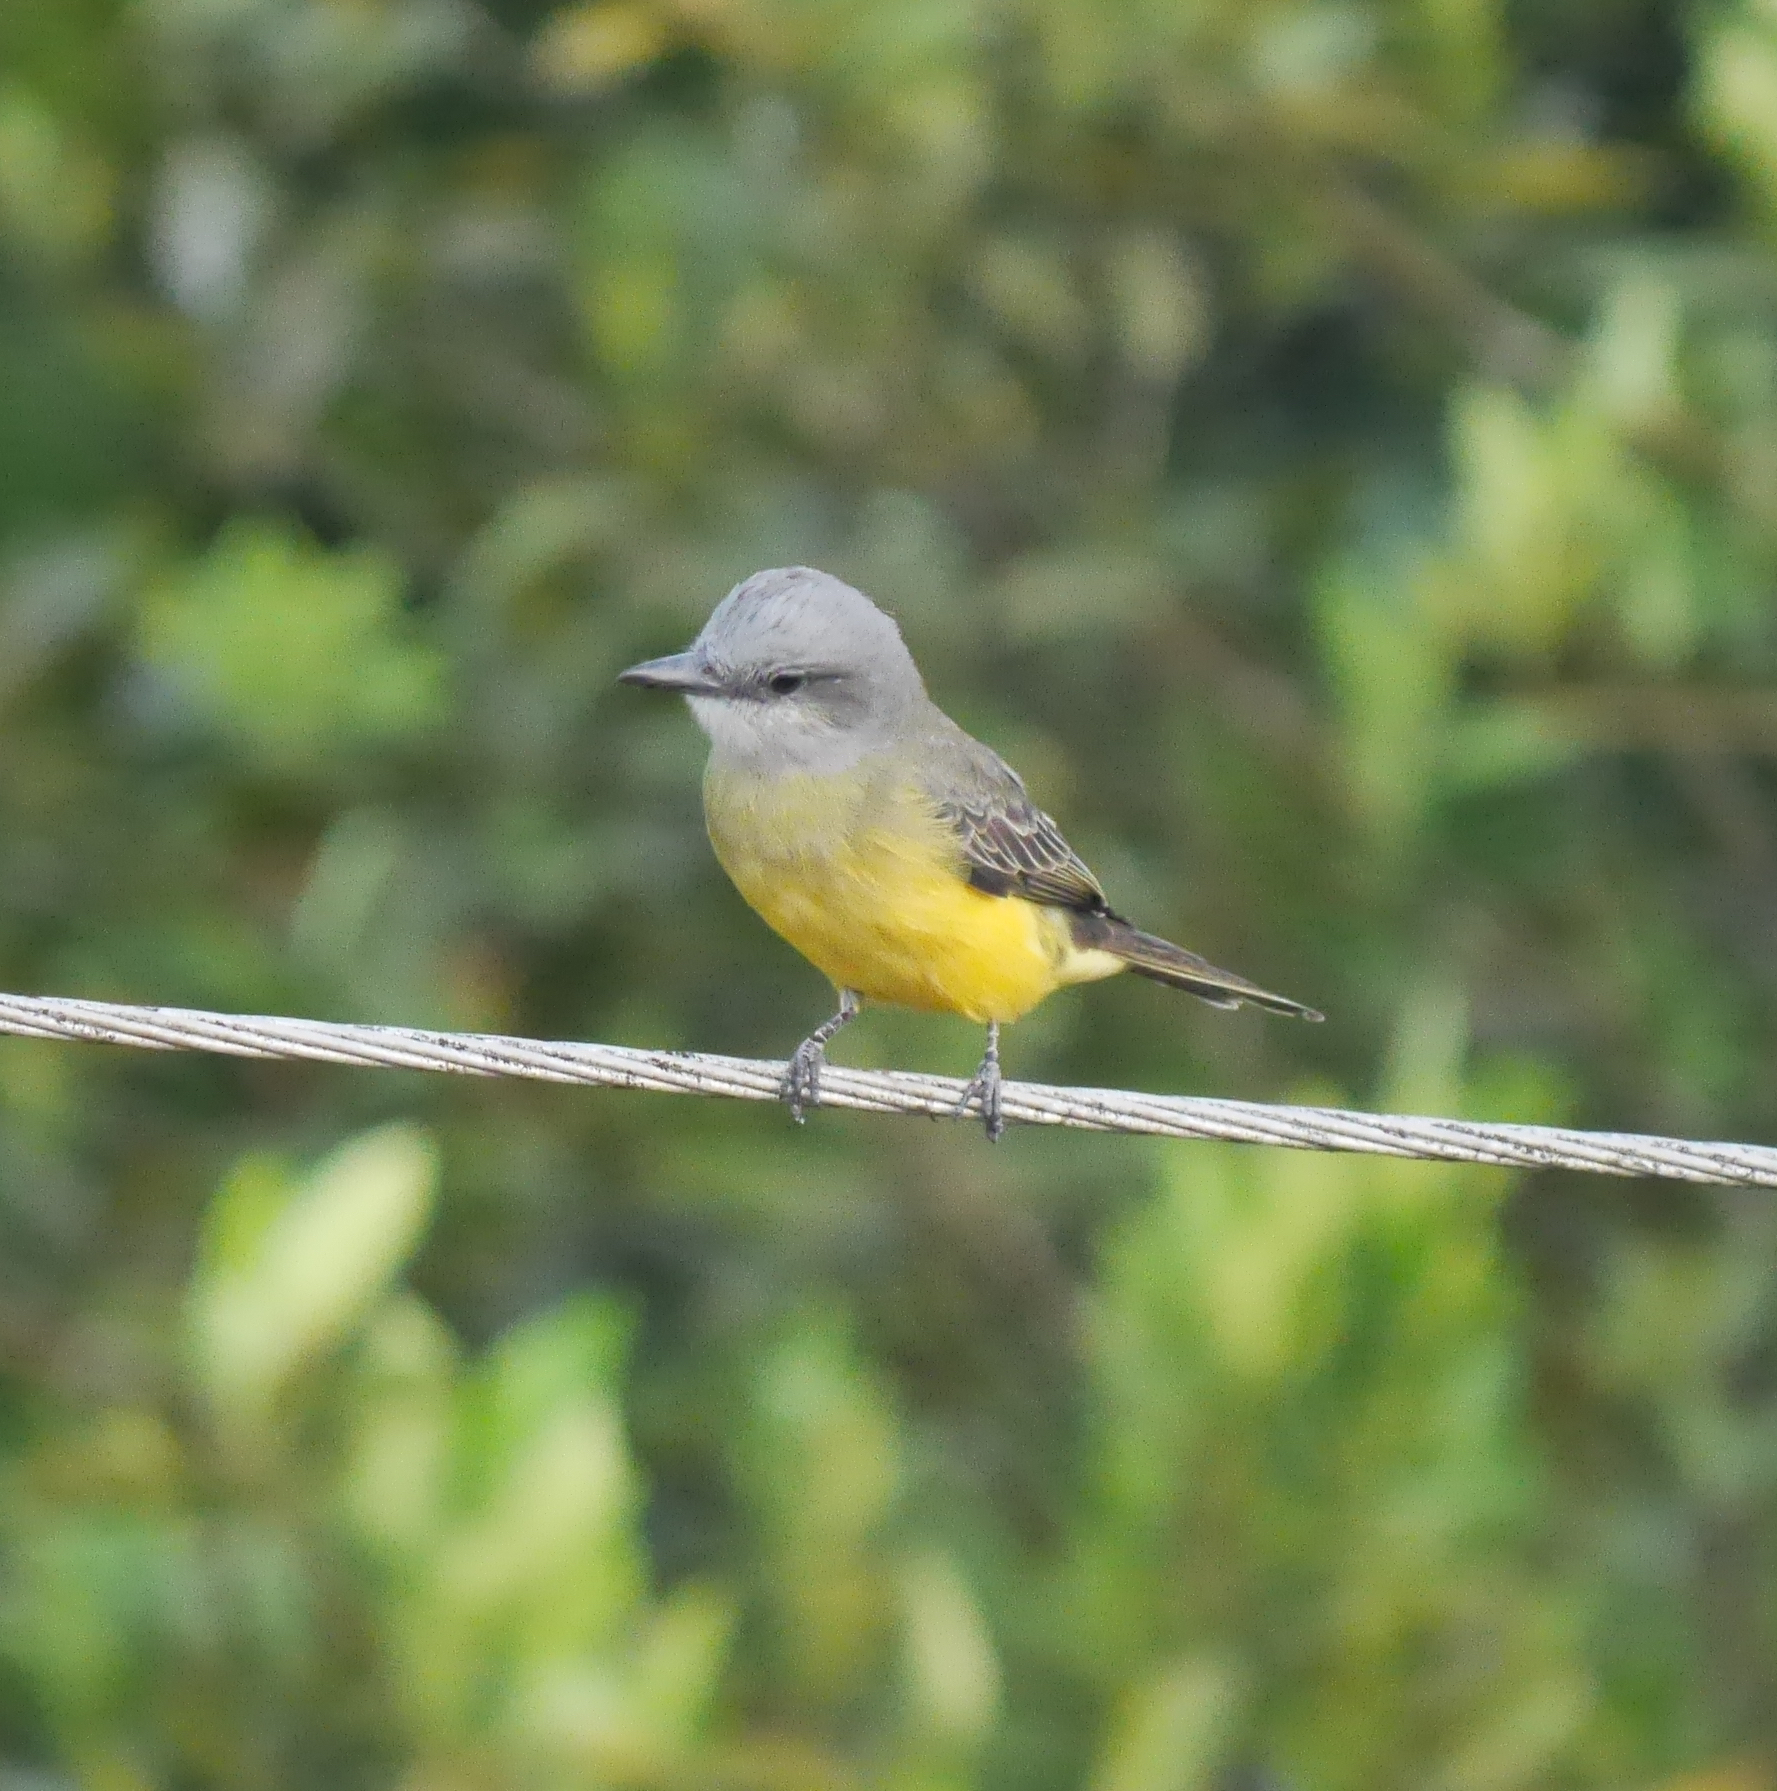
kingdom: Animalia
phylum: Chordata
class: Aves
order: Passeriformes
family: Tyrannidae
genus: Tyrannus
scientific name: Tyrannus melancholicus
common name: Tropical kingbird
